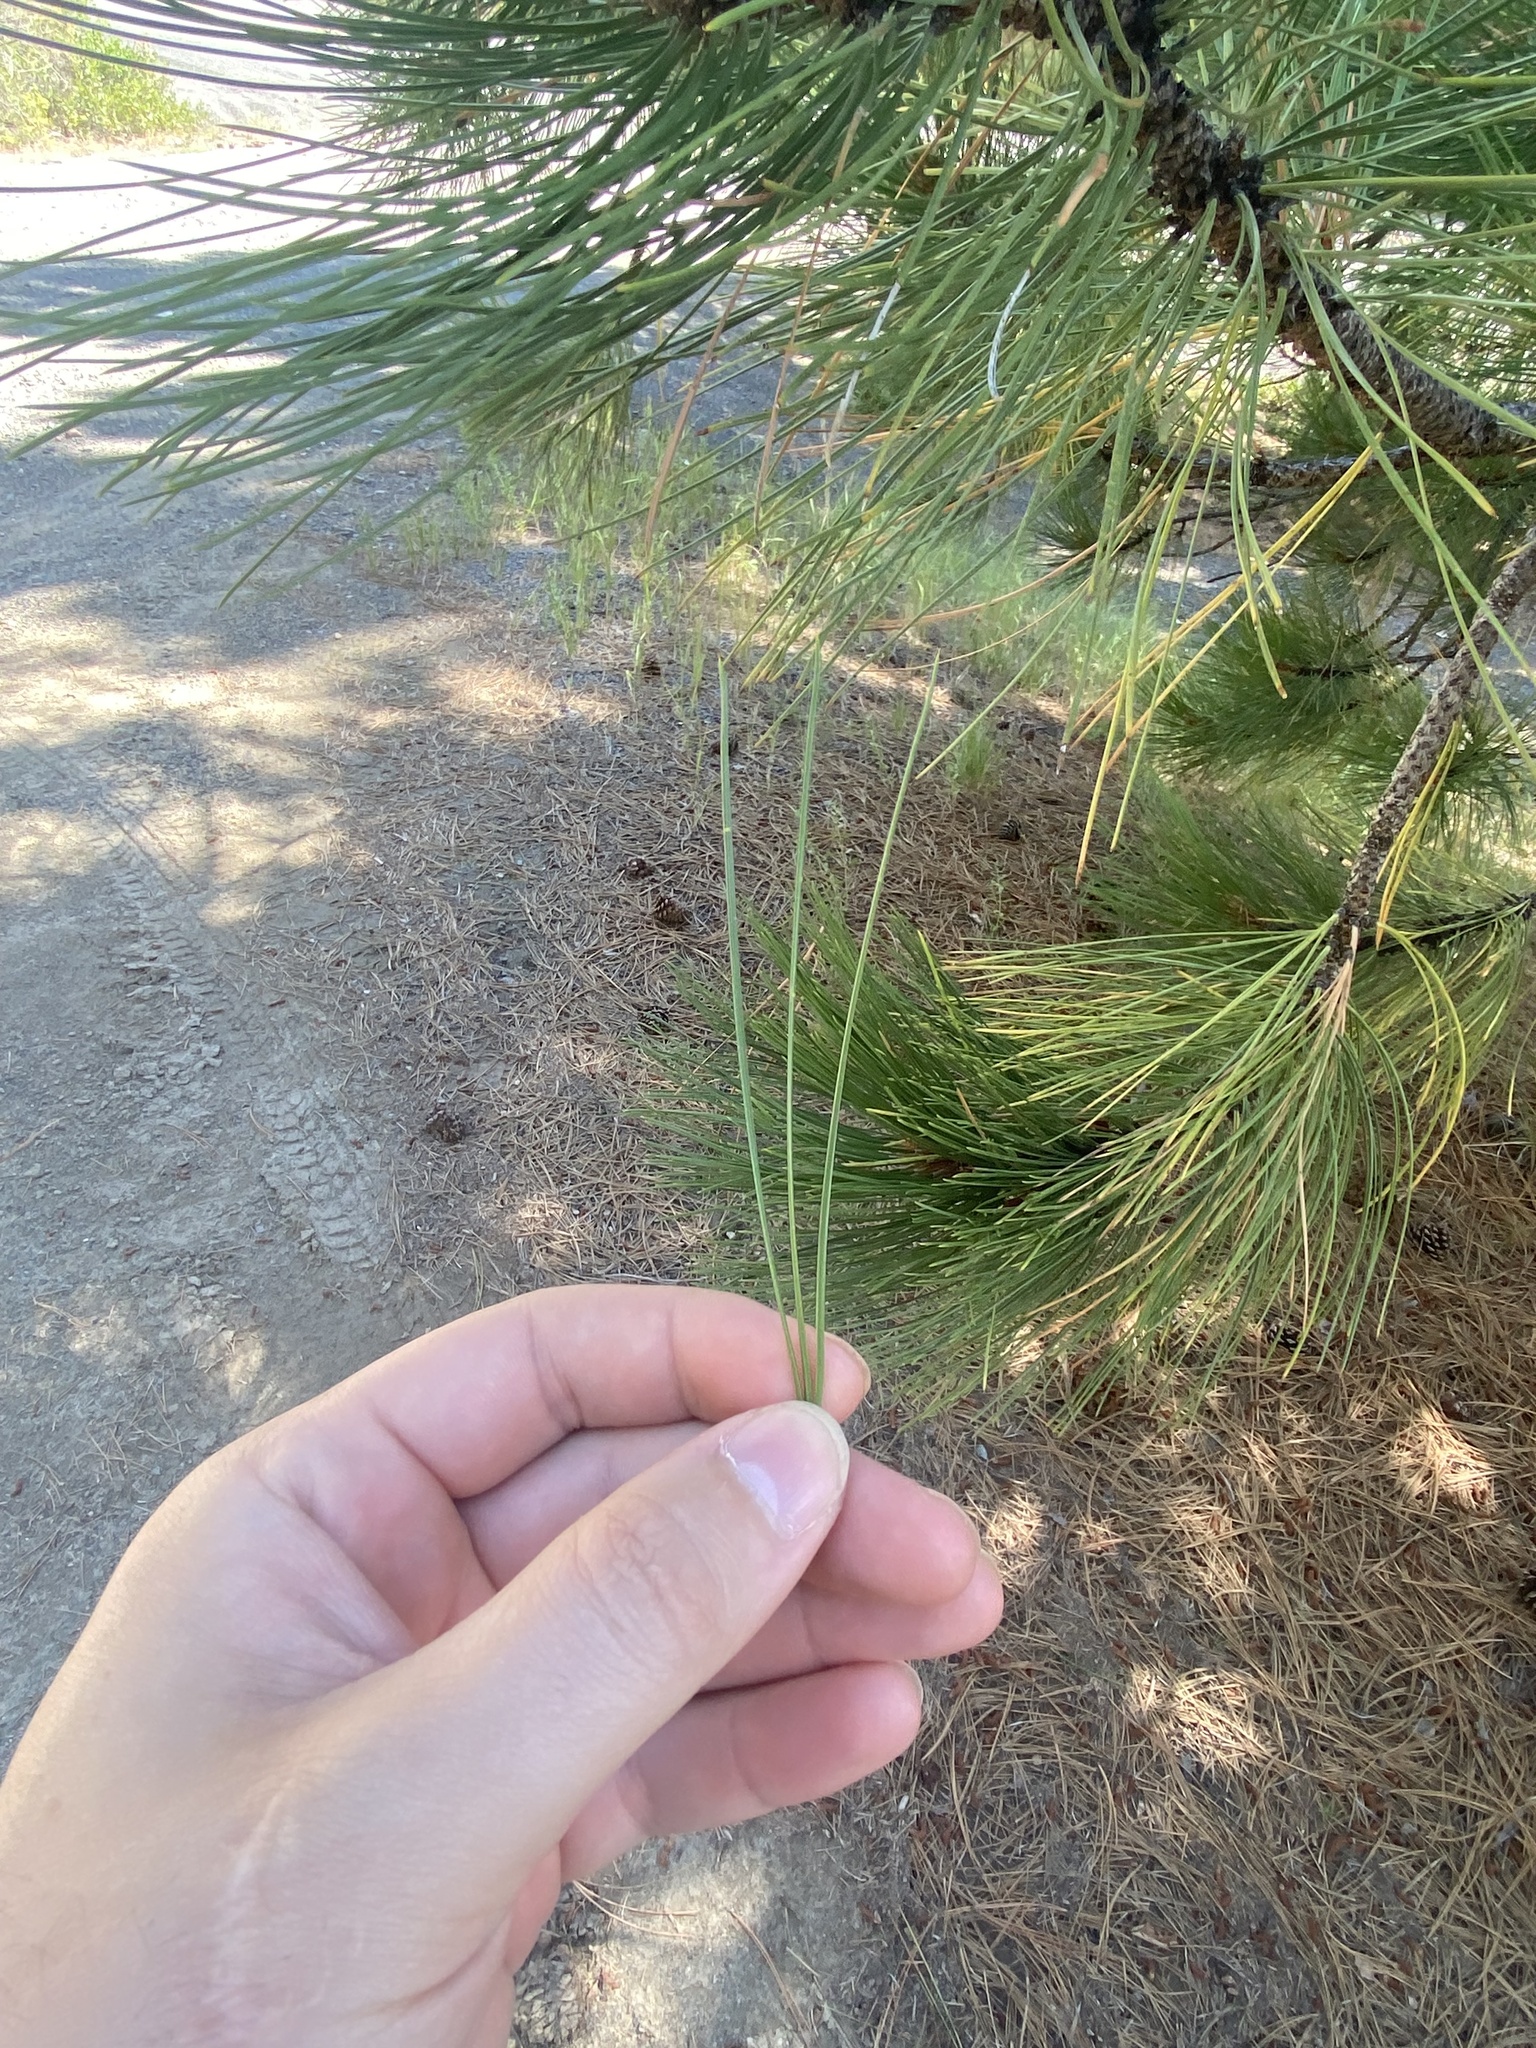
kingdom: Plantae
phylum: Tracheophyta
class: Pinopsida
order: Pinales
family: Pinaceae
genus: Pinus
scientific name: Pinus ponderosa
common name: Western yellow-pine
